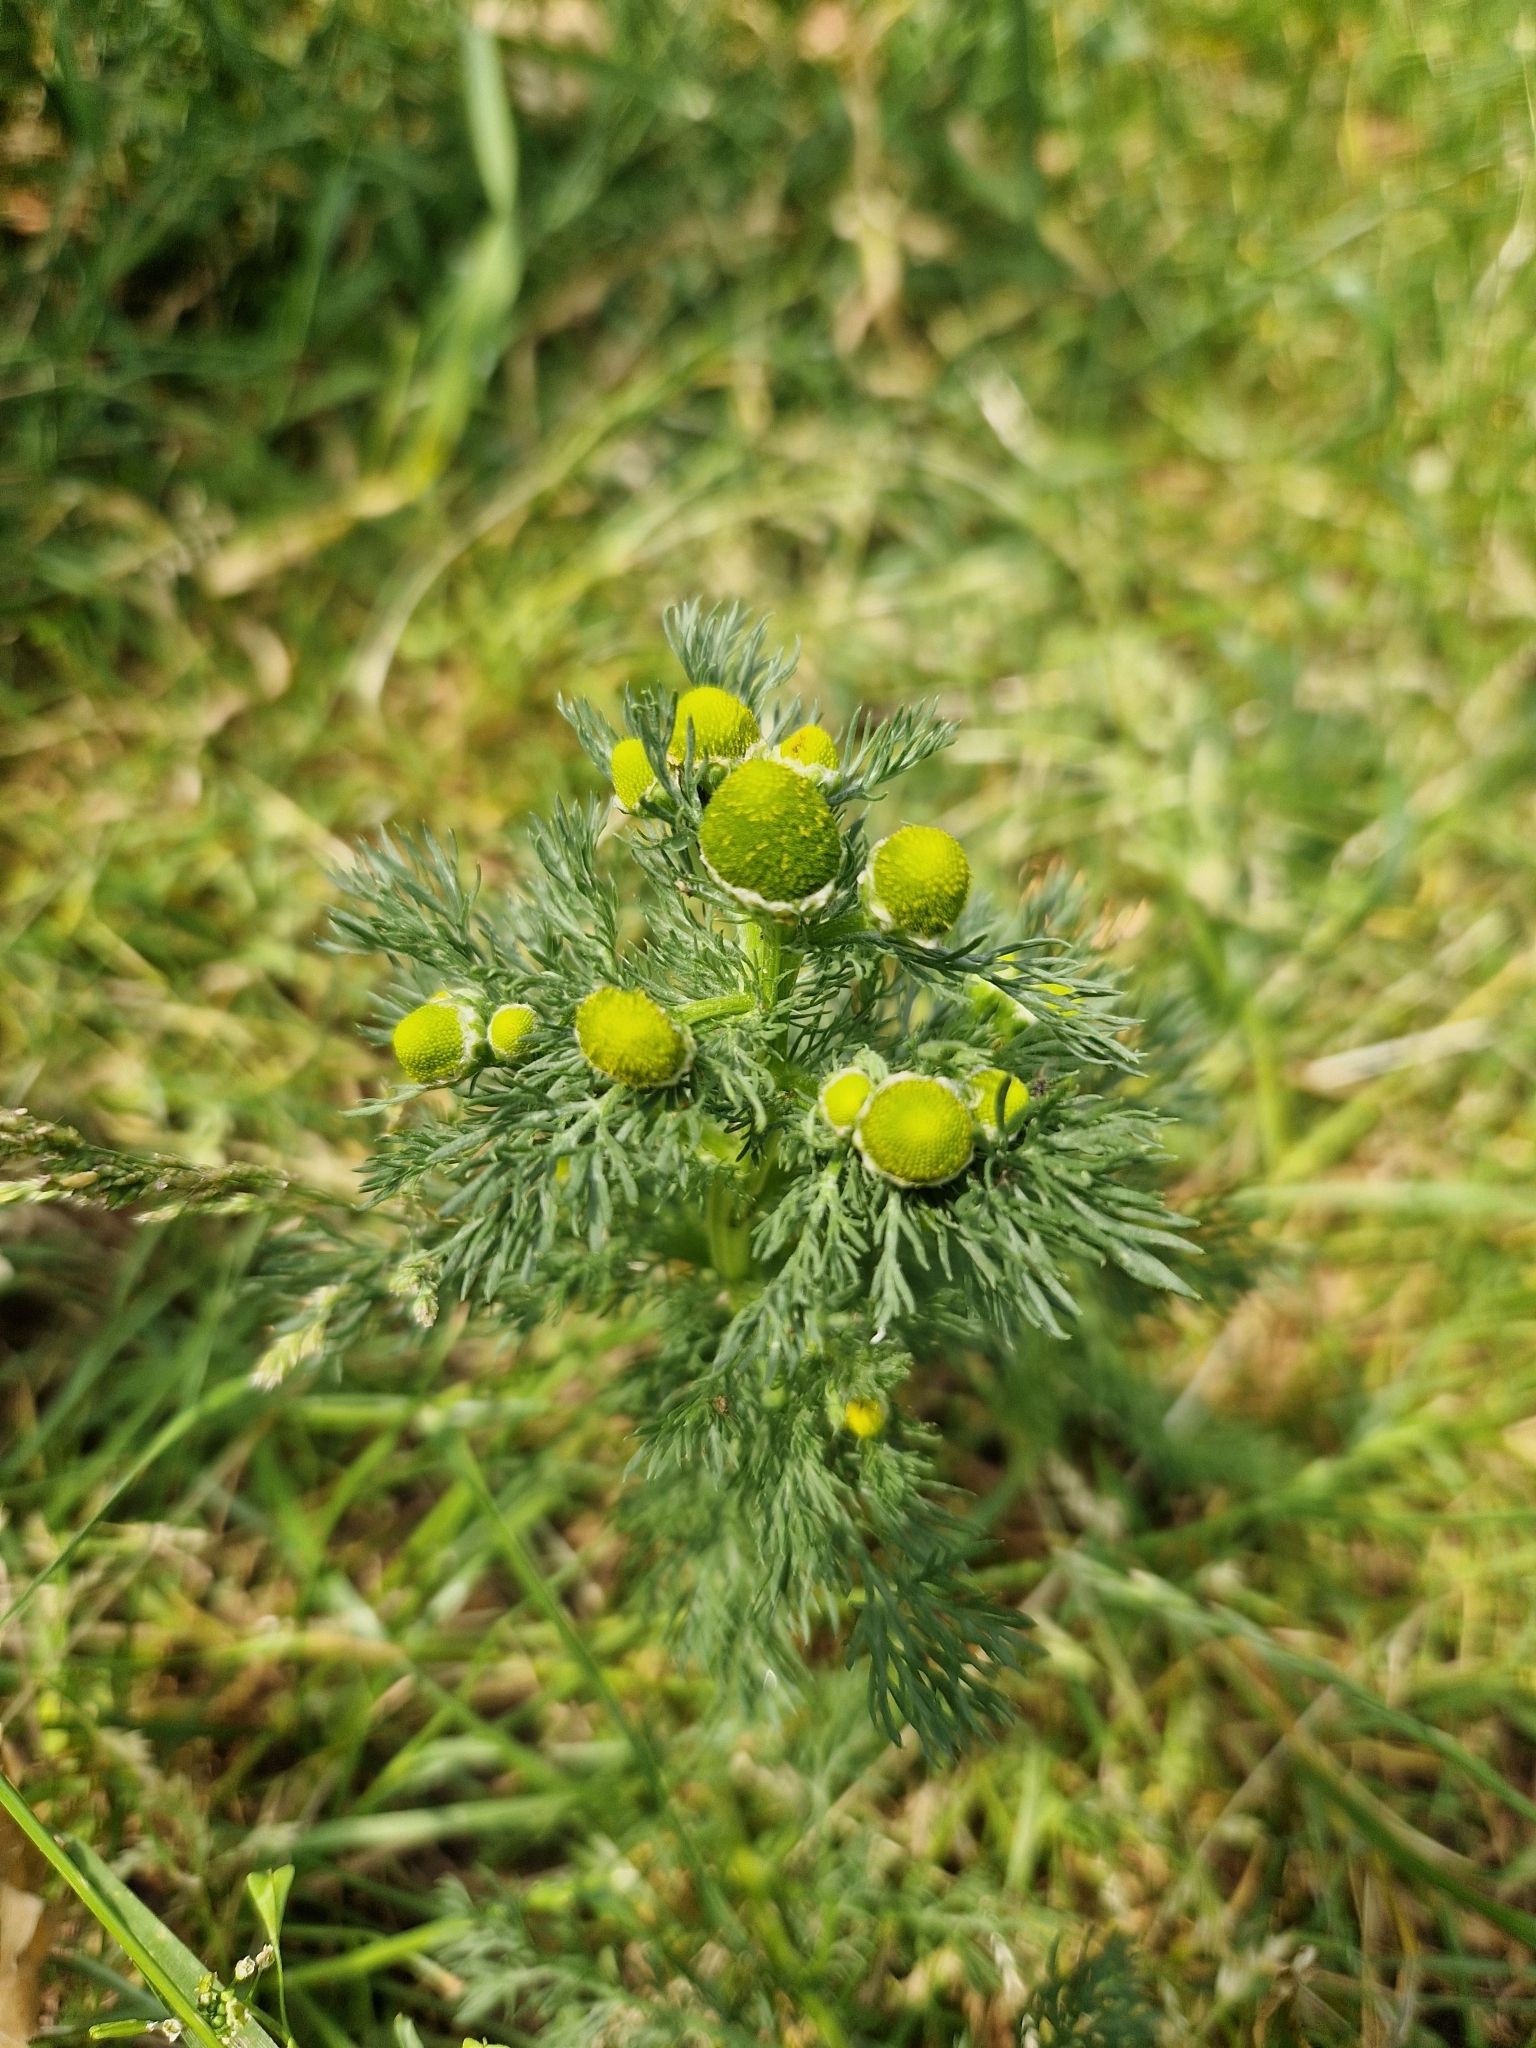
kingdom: Plantae
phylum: Tracheophyta
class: Magnoliopsida
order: Asterales
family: Asteraceae
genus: Matricaria
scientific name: Matricaria discoidea
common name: Disc mayweed
